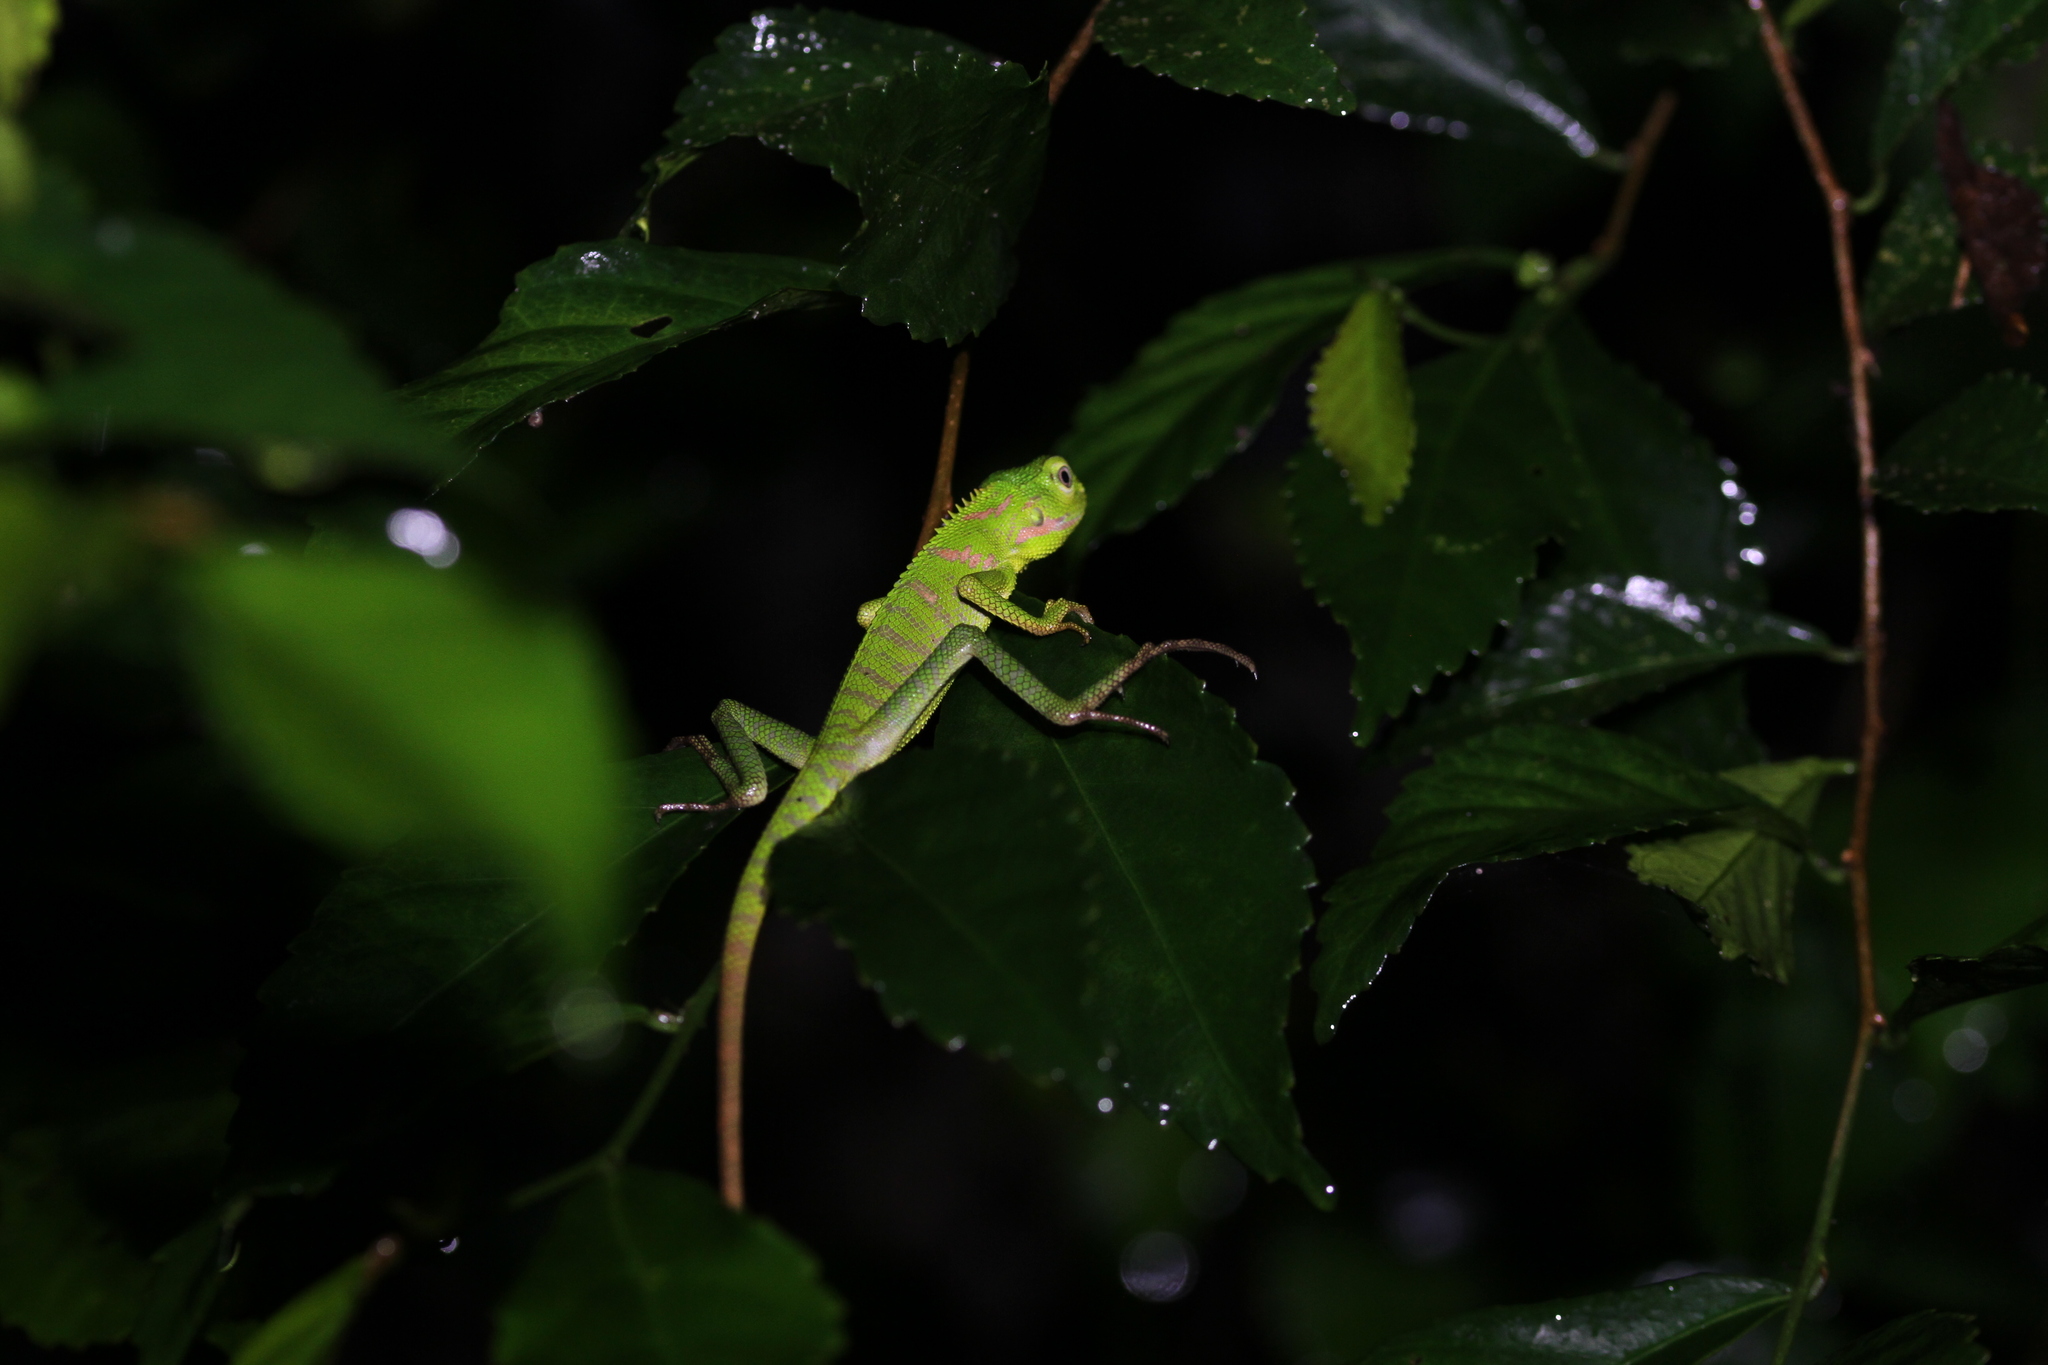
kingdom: Animalia
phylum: Chordata
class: Squamata
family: Agamidae
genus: Bronchocela
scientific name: Bronchocela jubata
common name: Maned forest lizard
